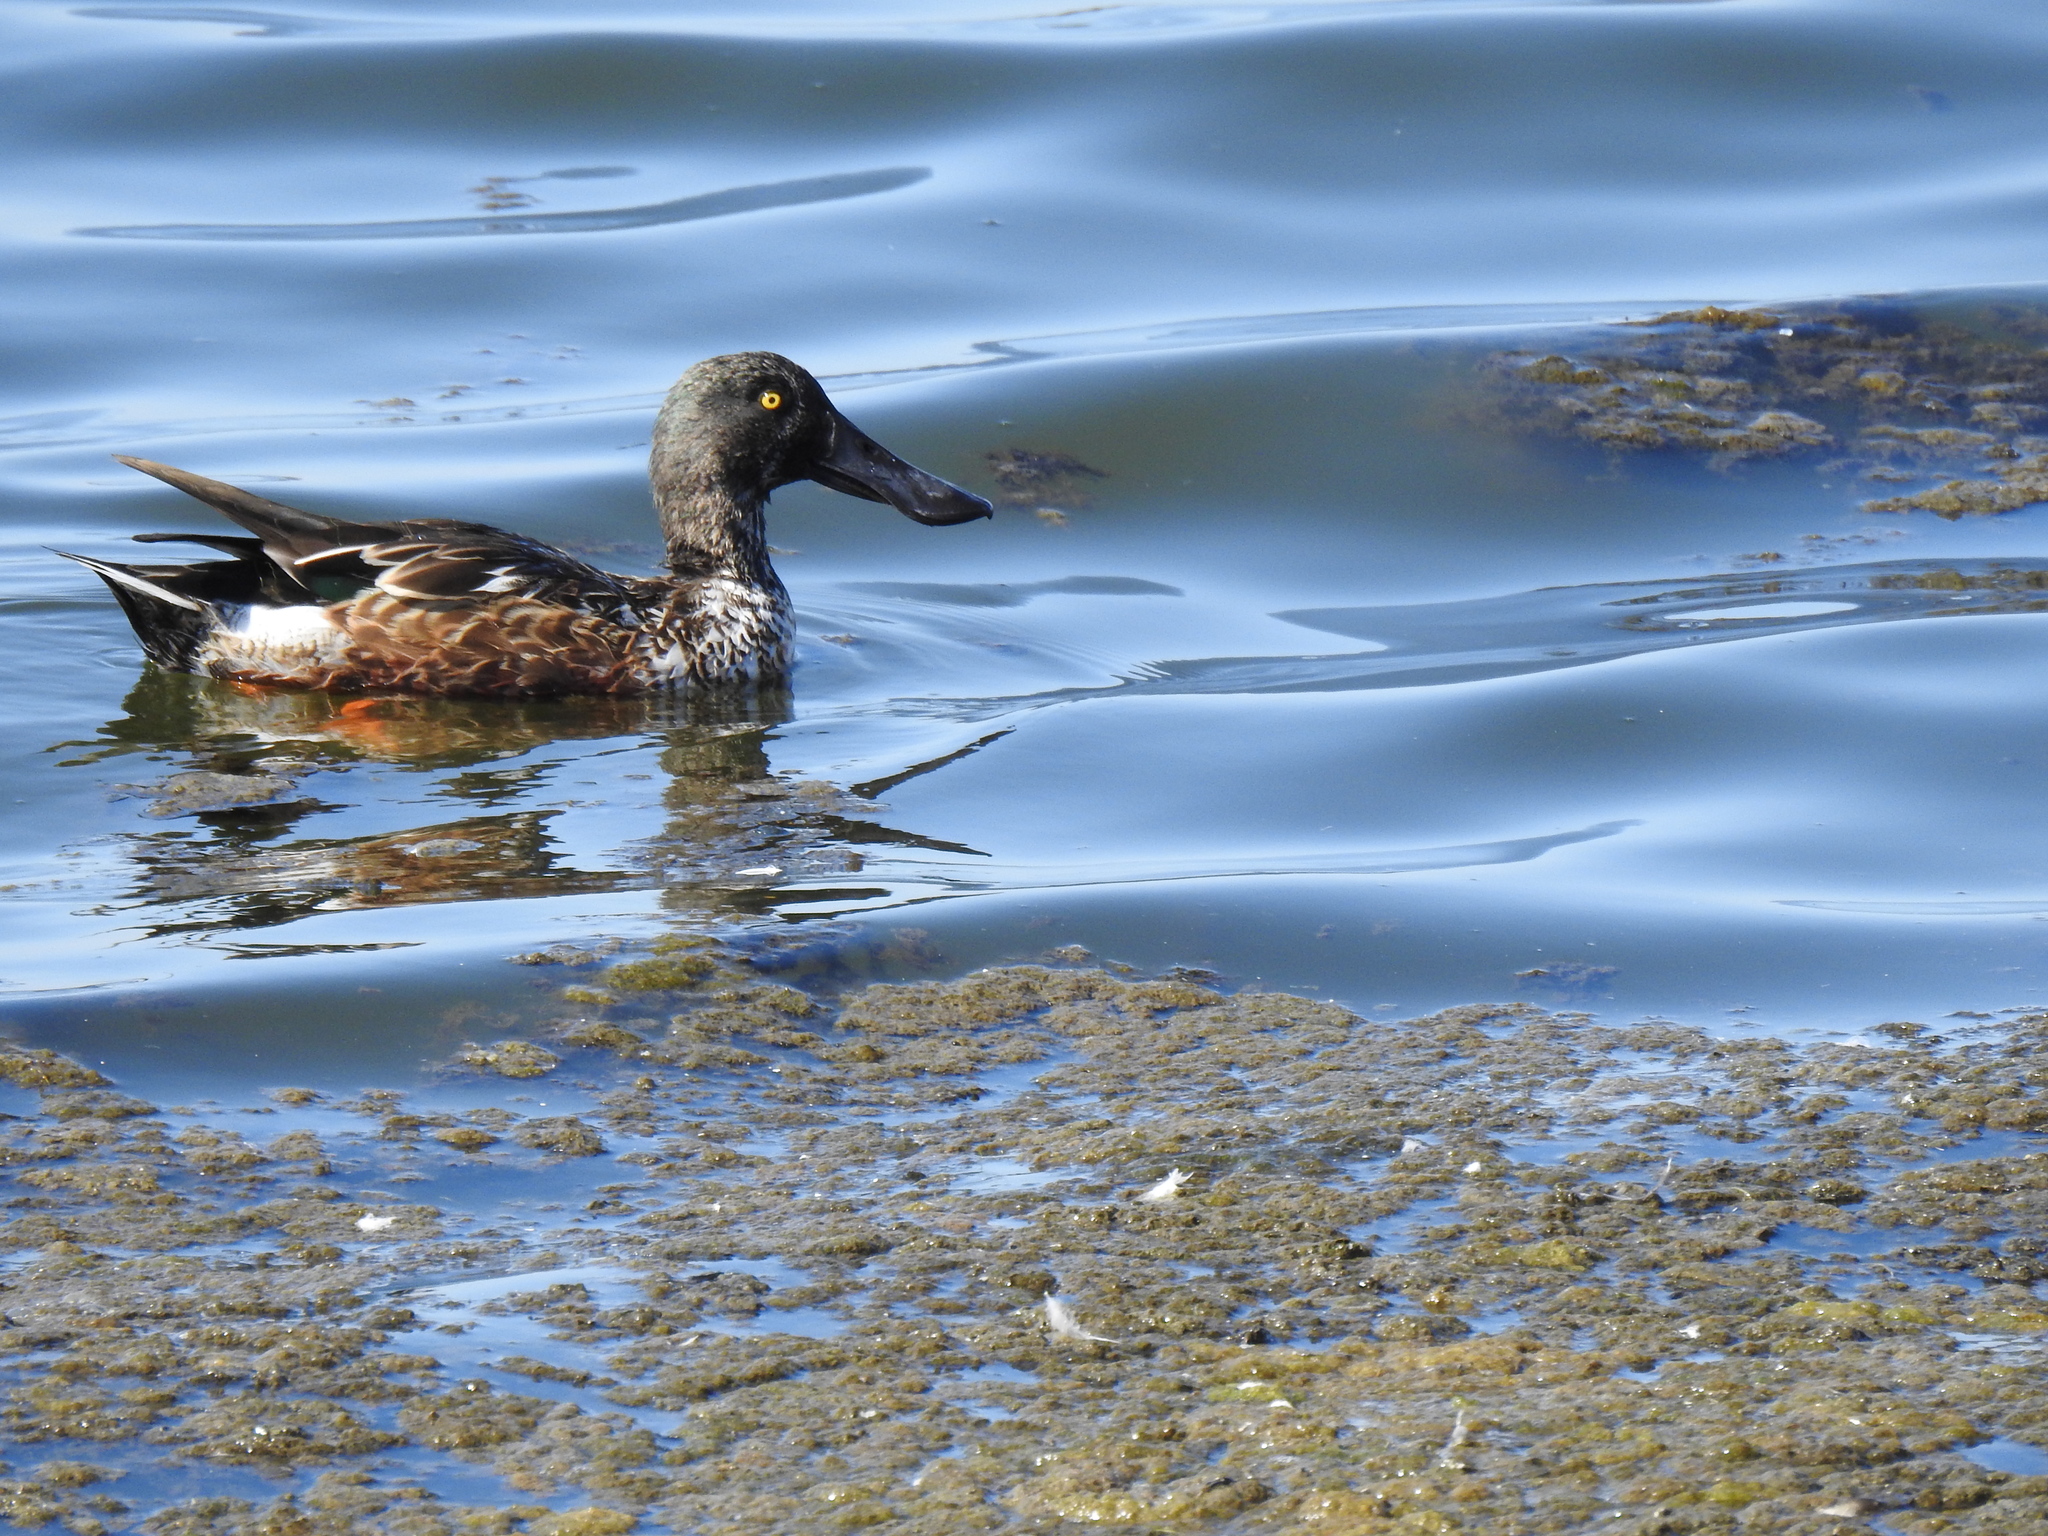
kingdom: Animalia
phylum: Chordata
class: Aves
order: Anseriformes
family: Anatidae
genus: Spatula
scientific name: Spatula clypeata
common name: Northern shoveler
